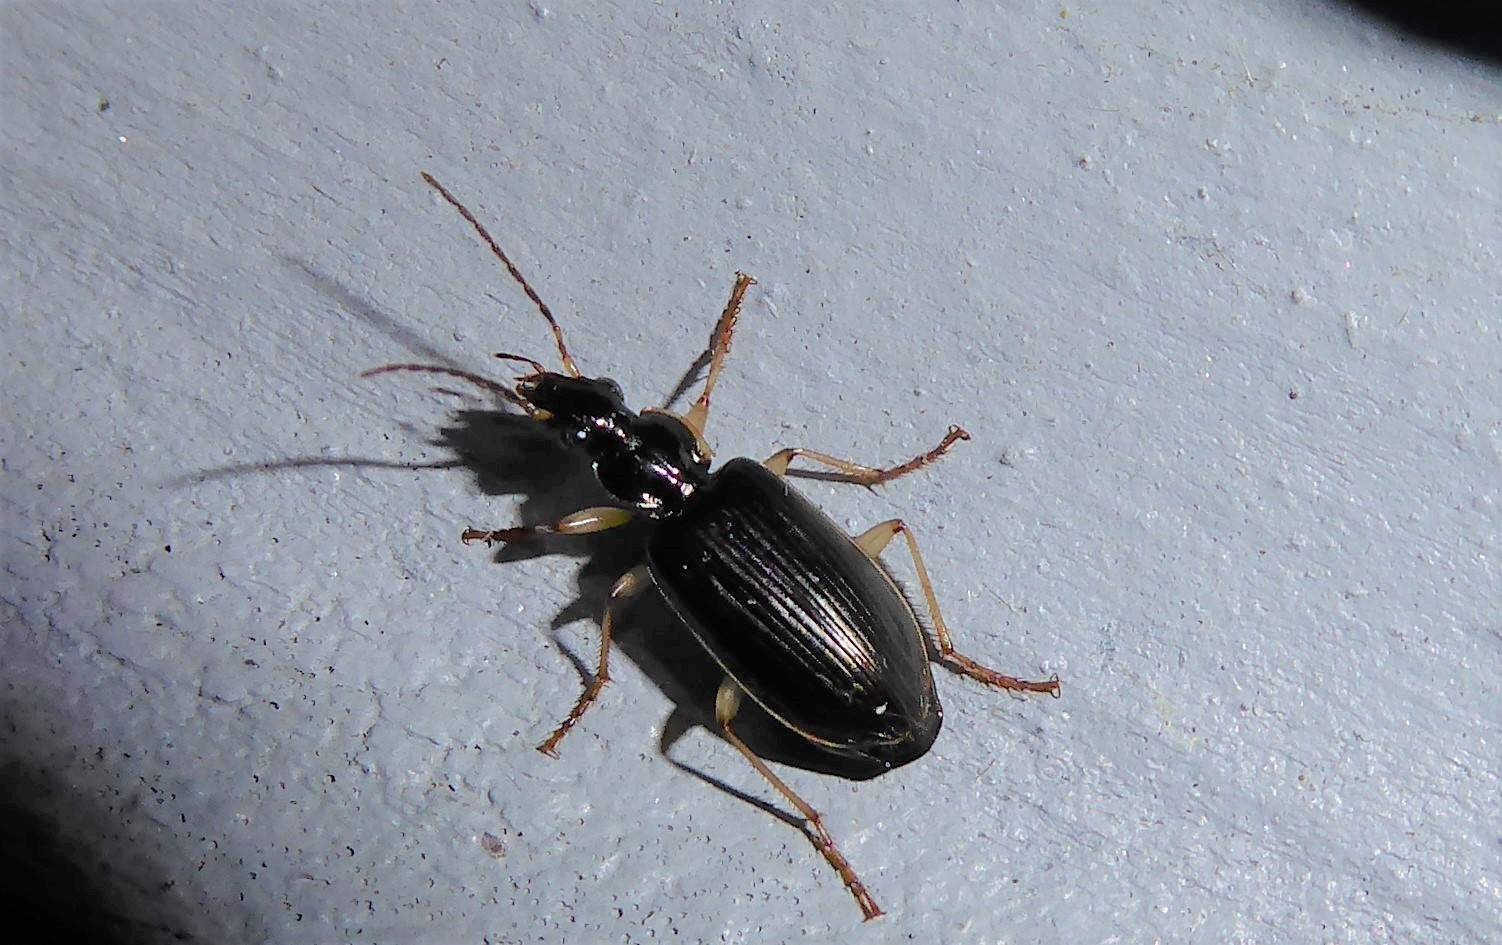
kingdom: Animalia
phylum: Arthropoda
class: Insecta
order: Coleoptera
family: Carabidae
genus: Notagonum
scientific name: Notagonum submetallicum
